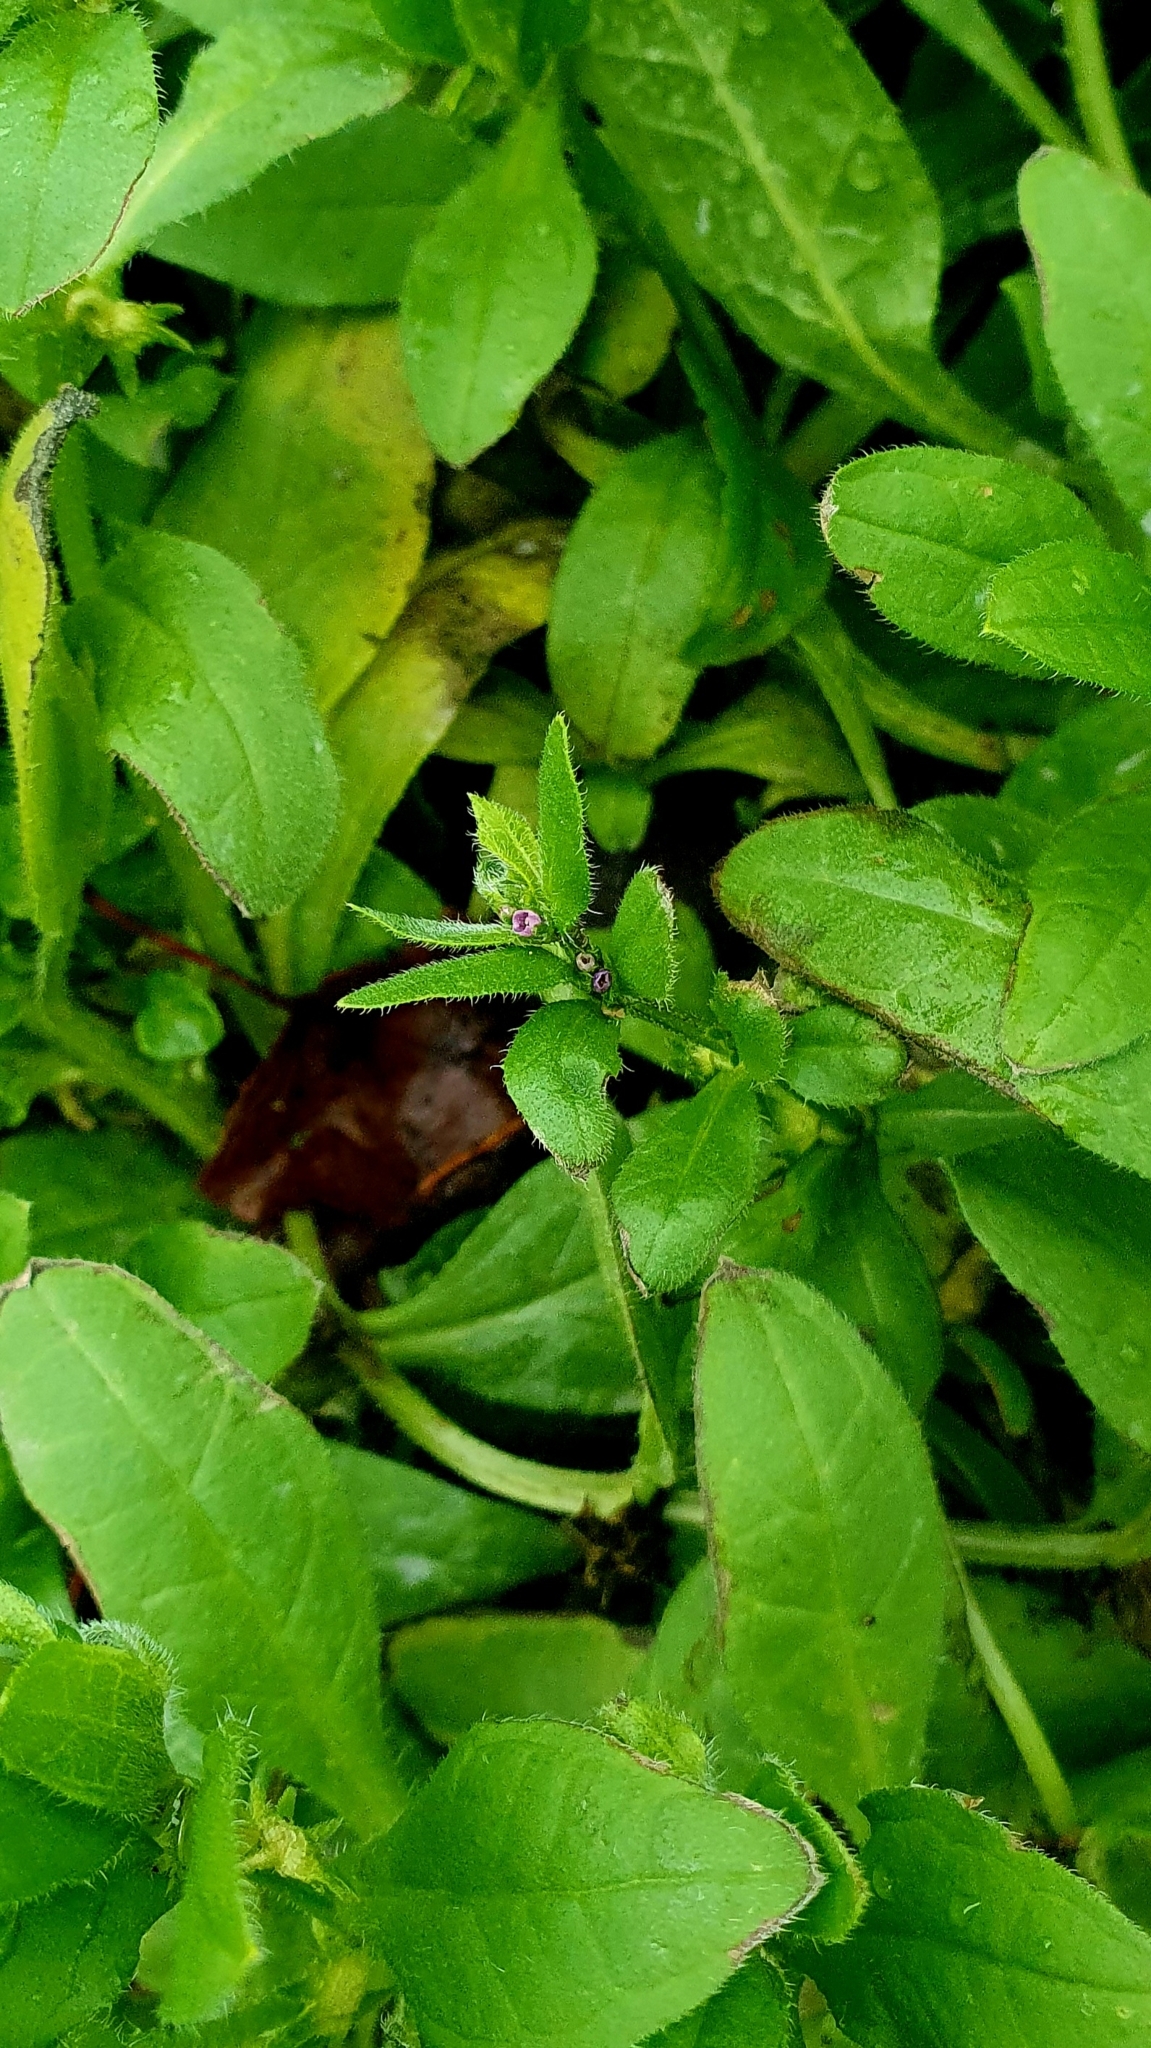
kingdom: Plantae
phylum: Tracheophyta
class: Magnoliopsida
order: Boraginales
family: Boraginaceae
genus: Asperugo
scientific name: Asperugo procumbens
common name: Madwort
